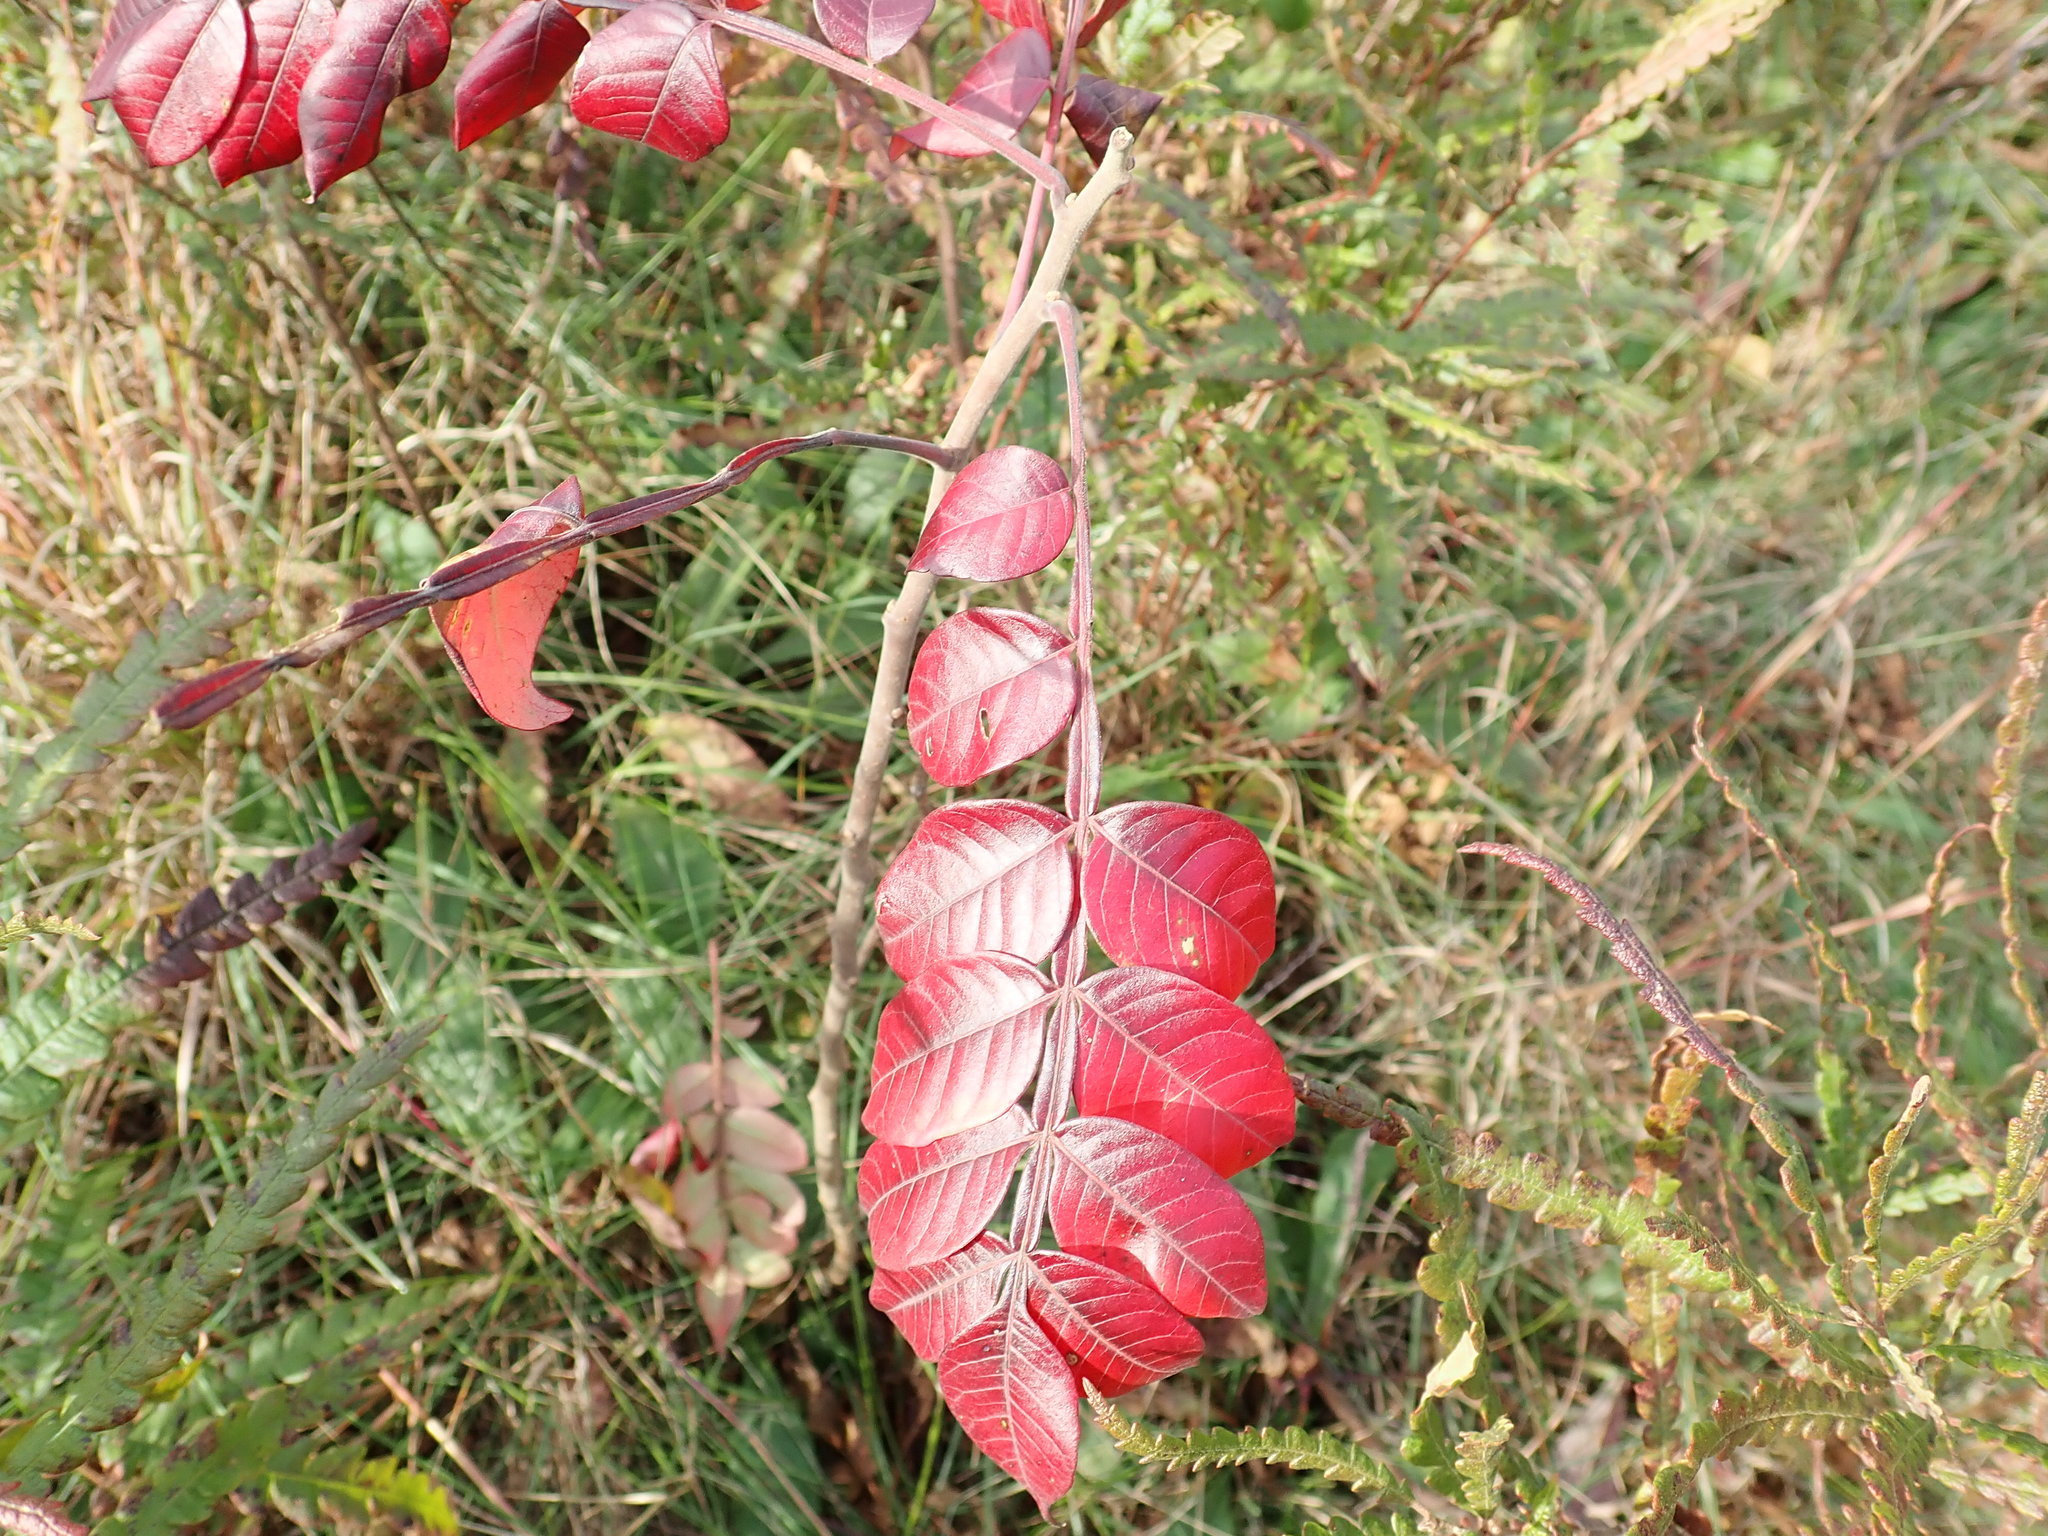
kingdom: Plantae
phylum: Tracheophyta
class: Magnoliopsida
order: Sapindales
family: Anacardiaceae
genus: Rhus
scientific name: Rhus copallina
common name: Shining sumac
